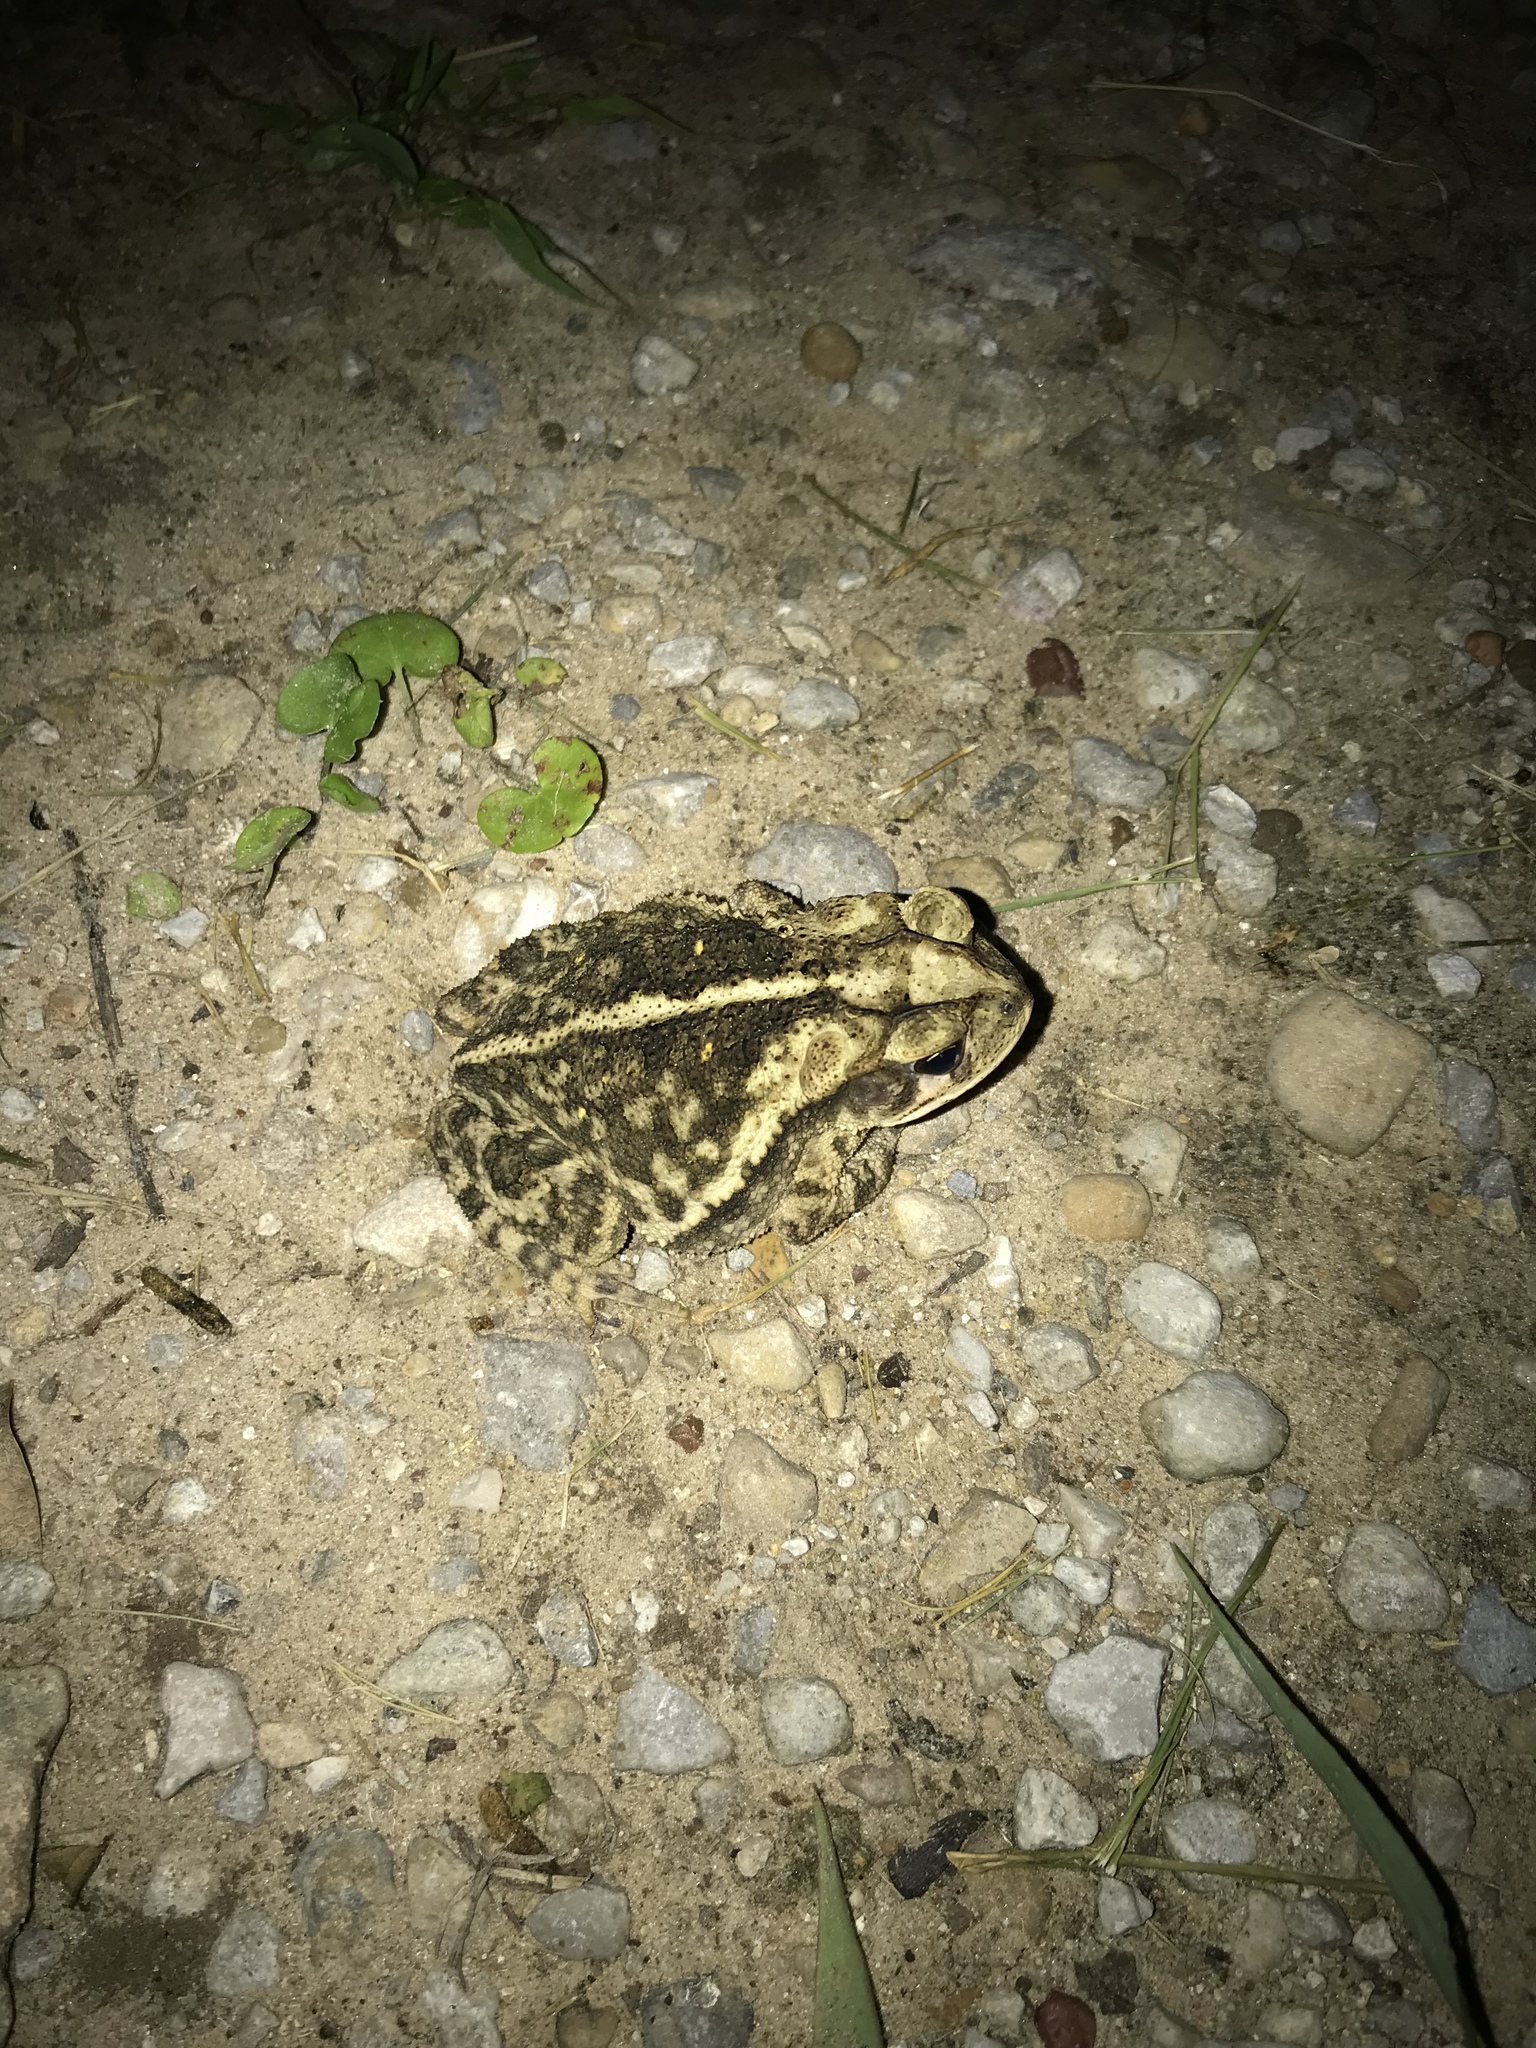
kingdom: Animalia
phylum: Chordata
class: Amphibia
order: Anura
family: Bufonidae
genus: Incilius
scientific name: Incilius nebulifer
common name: Gulf coast toad
